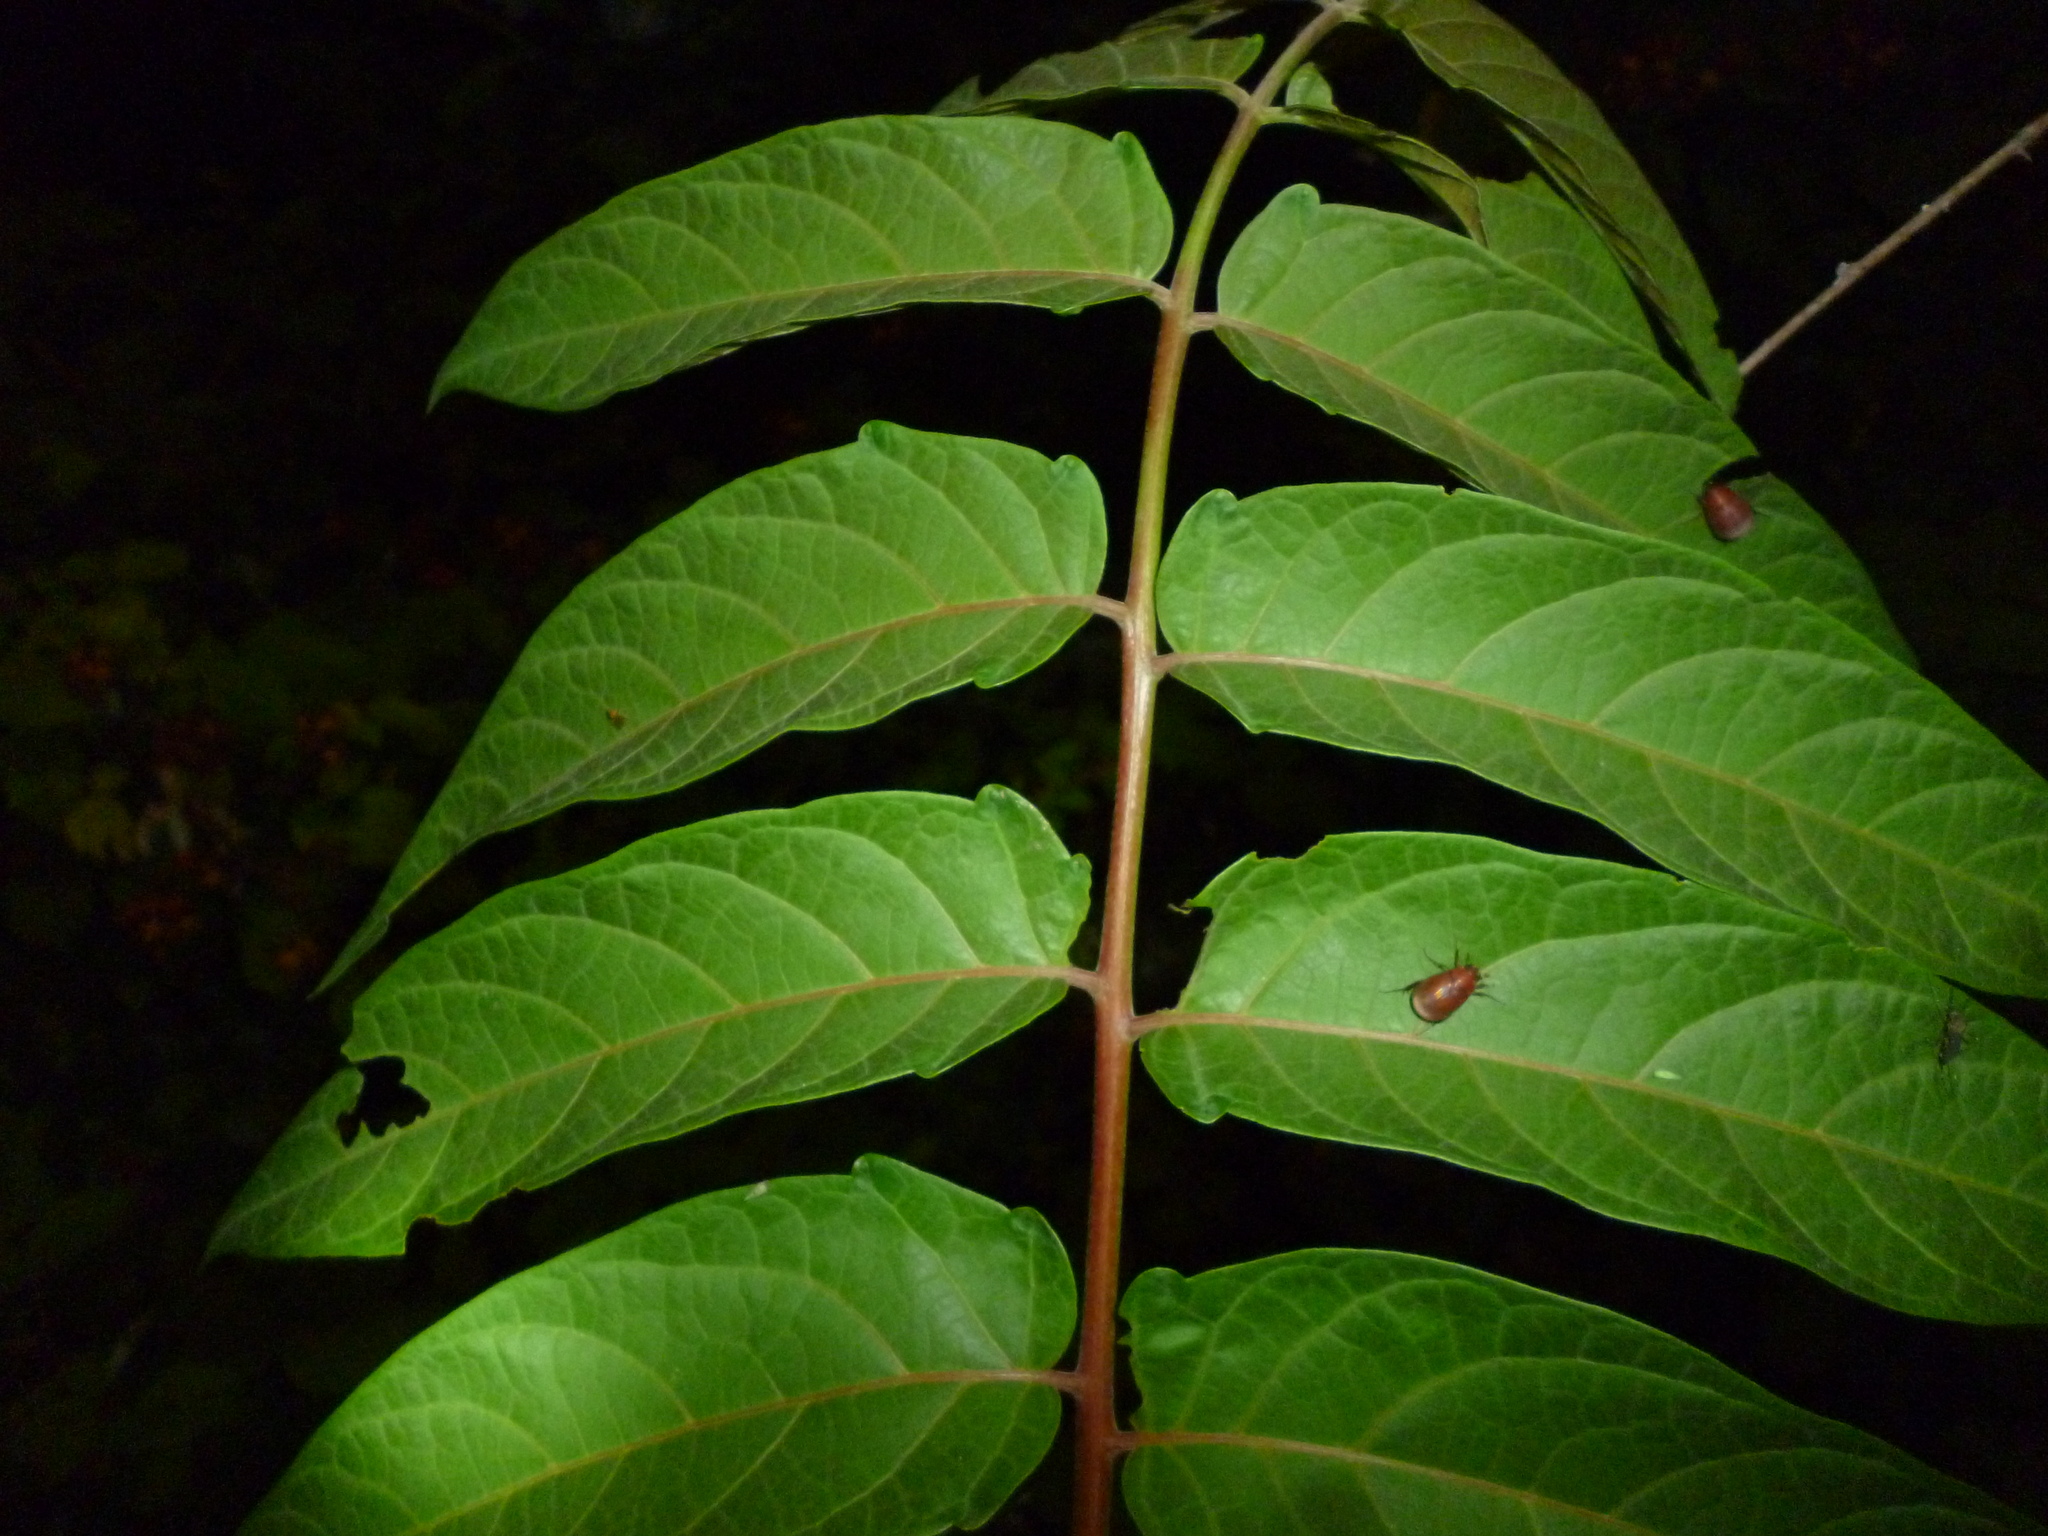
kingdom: Plantae
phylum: Tracheophyta
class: Magnoliopsida
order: Sapindales
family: Simaroubaceae
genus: Ailanthus
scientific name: Ailanthus altissima
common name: Tree-of-heaven
